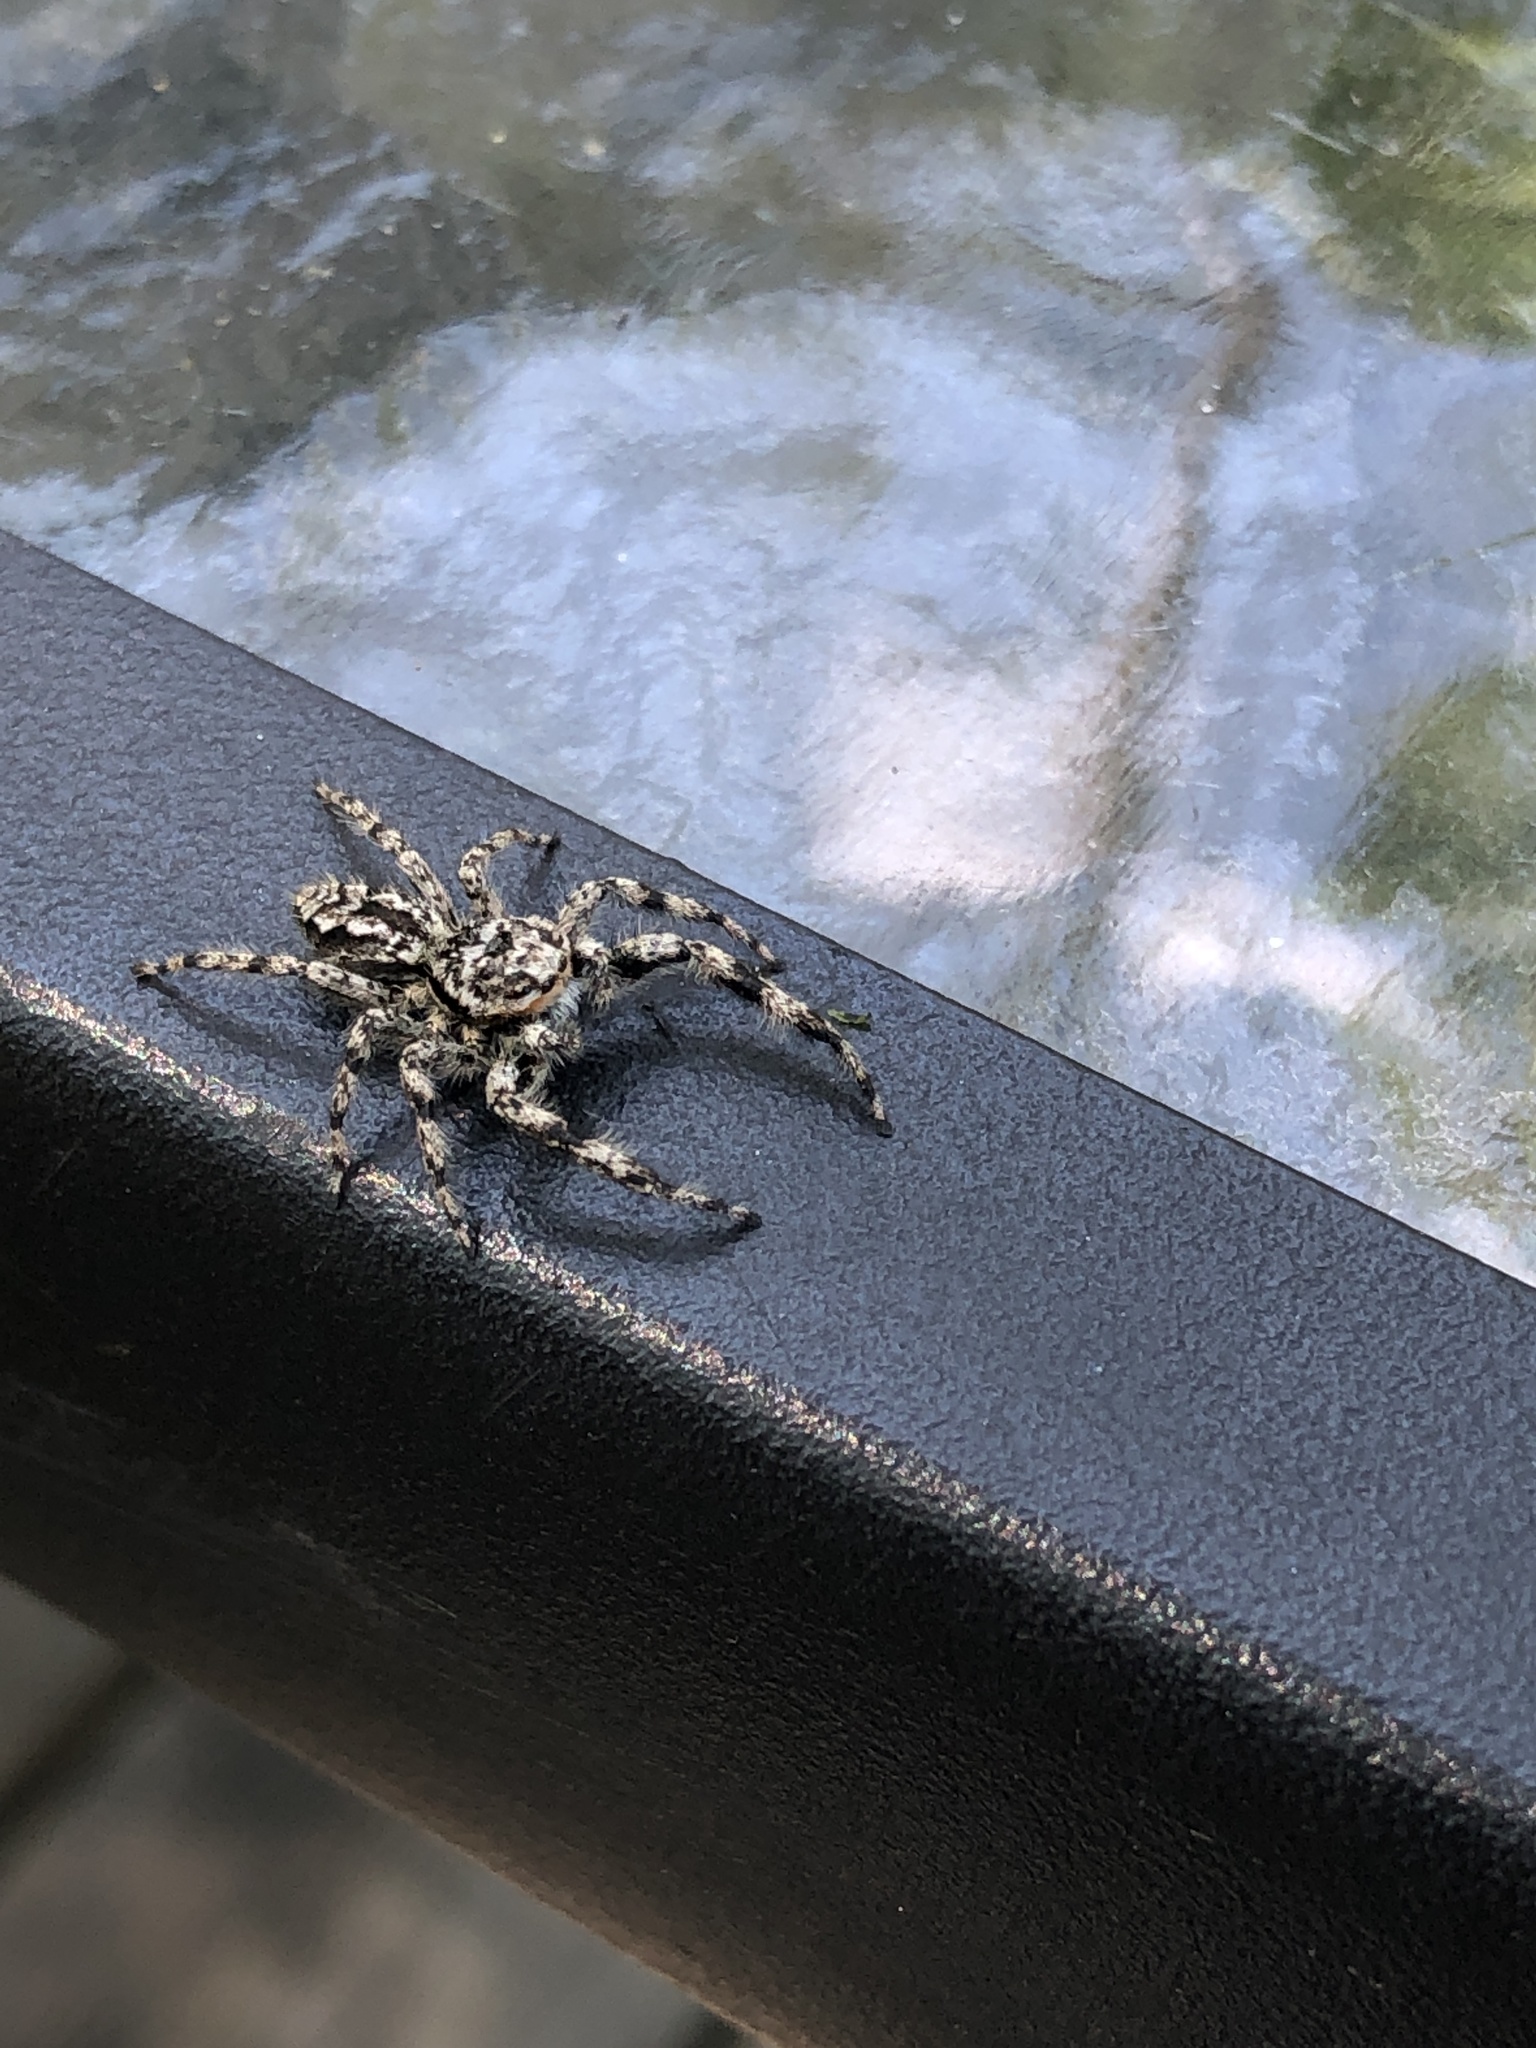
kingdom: Animalia
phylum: Arthropoda
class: Arachnida
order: Araneae
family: Salticidae
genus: Platycryptus
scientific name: Platycryptus undatus
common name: Tan jumping spider
